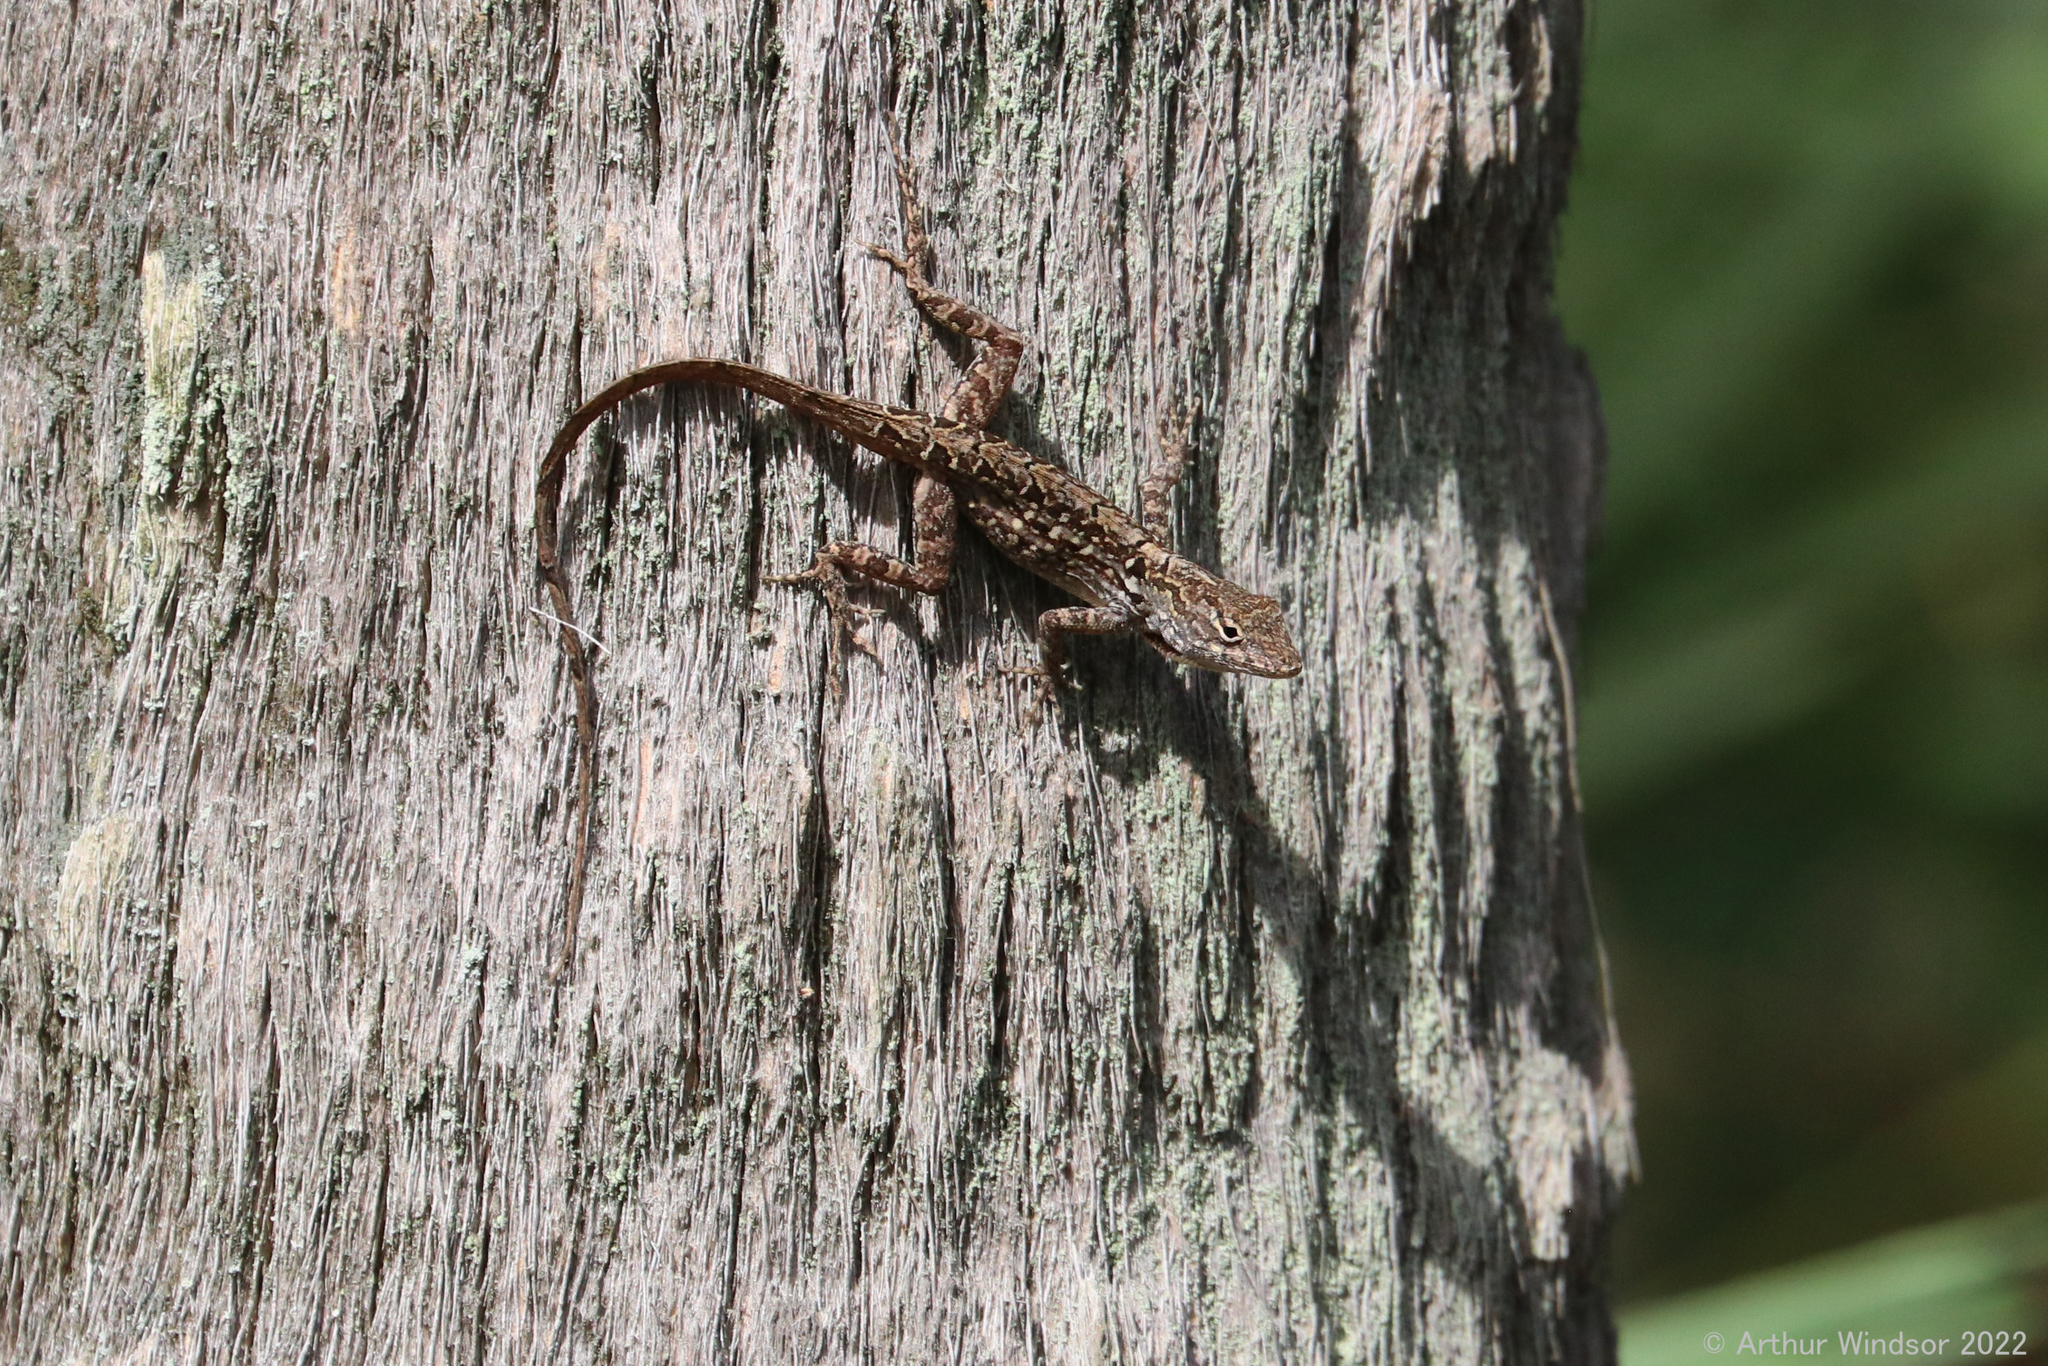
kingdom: Animalia
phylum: Chordata
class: Squamata
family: Dactyloidae
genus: Anolis
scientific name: Anolis sagrei
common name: Brown anole
